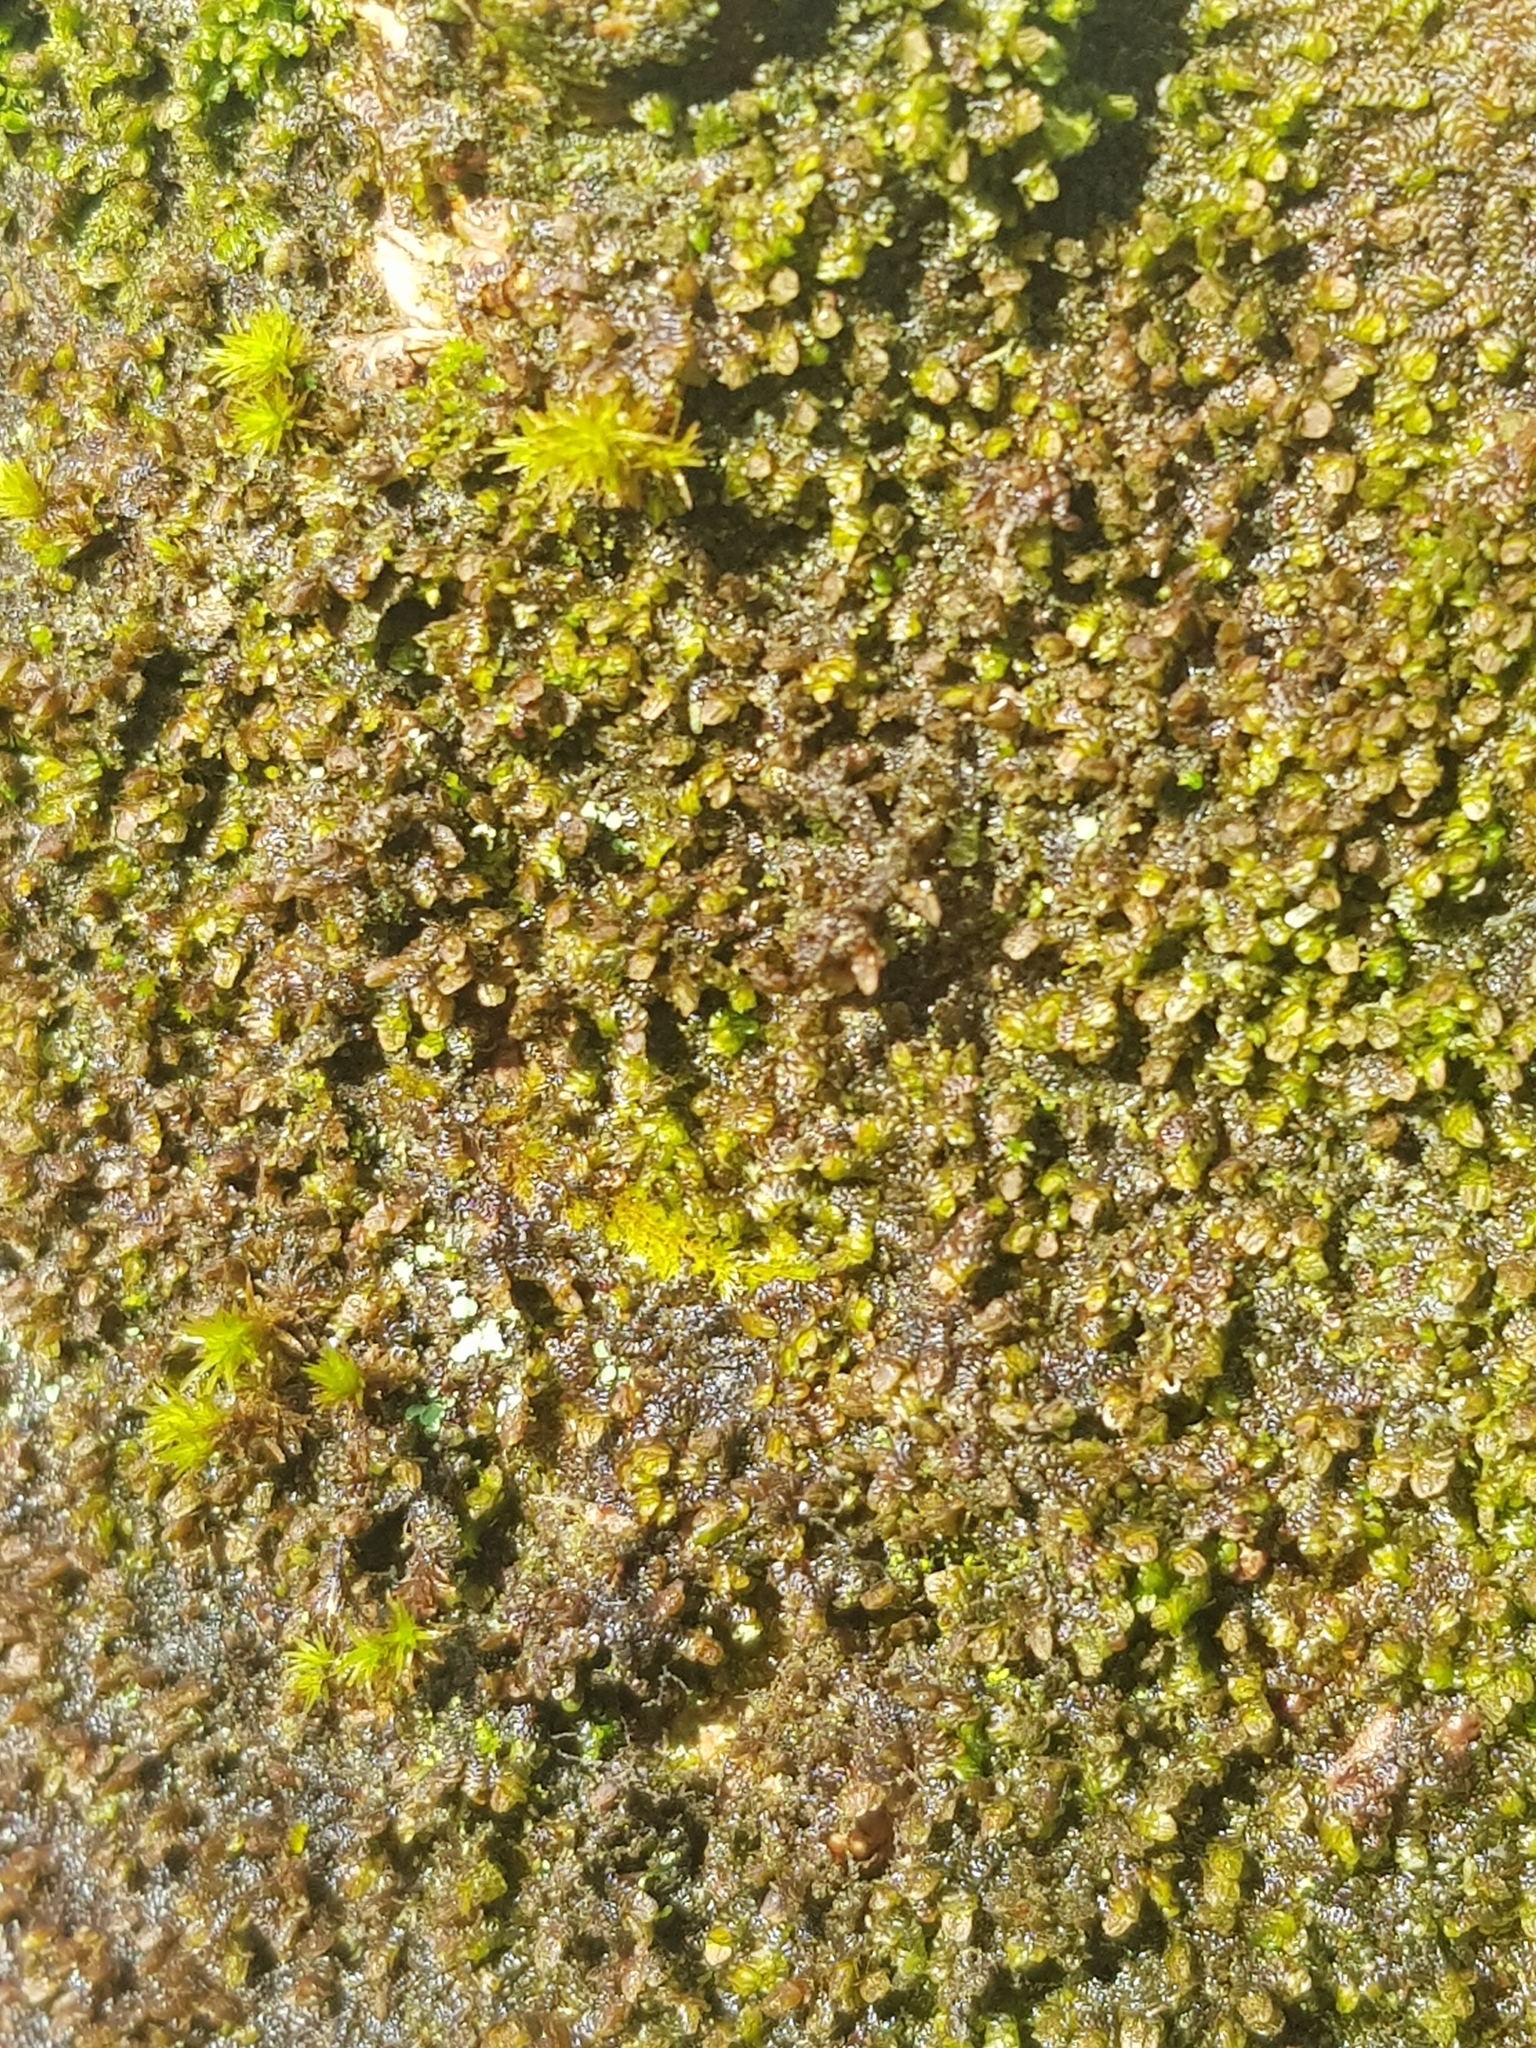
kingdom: Plantae
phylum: Marchantiophyta
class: Jungermanniopsida
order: Porellales
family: Frullaniaceae
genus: Frullania
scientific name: Frullania dilatata
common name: Dilated scalewort
